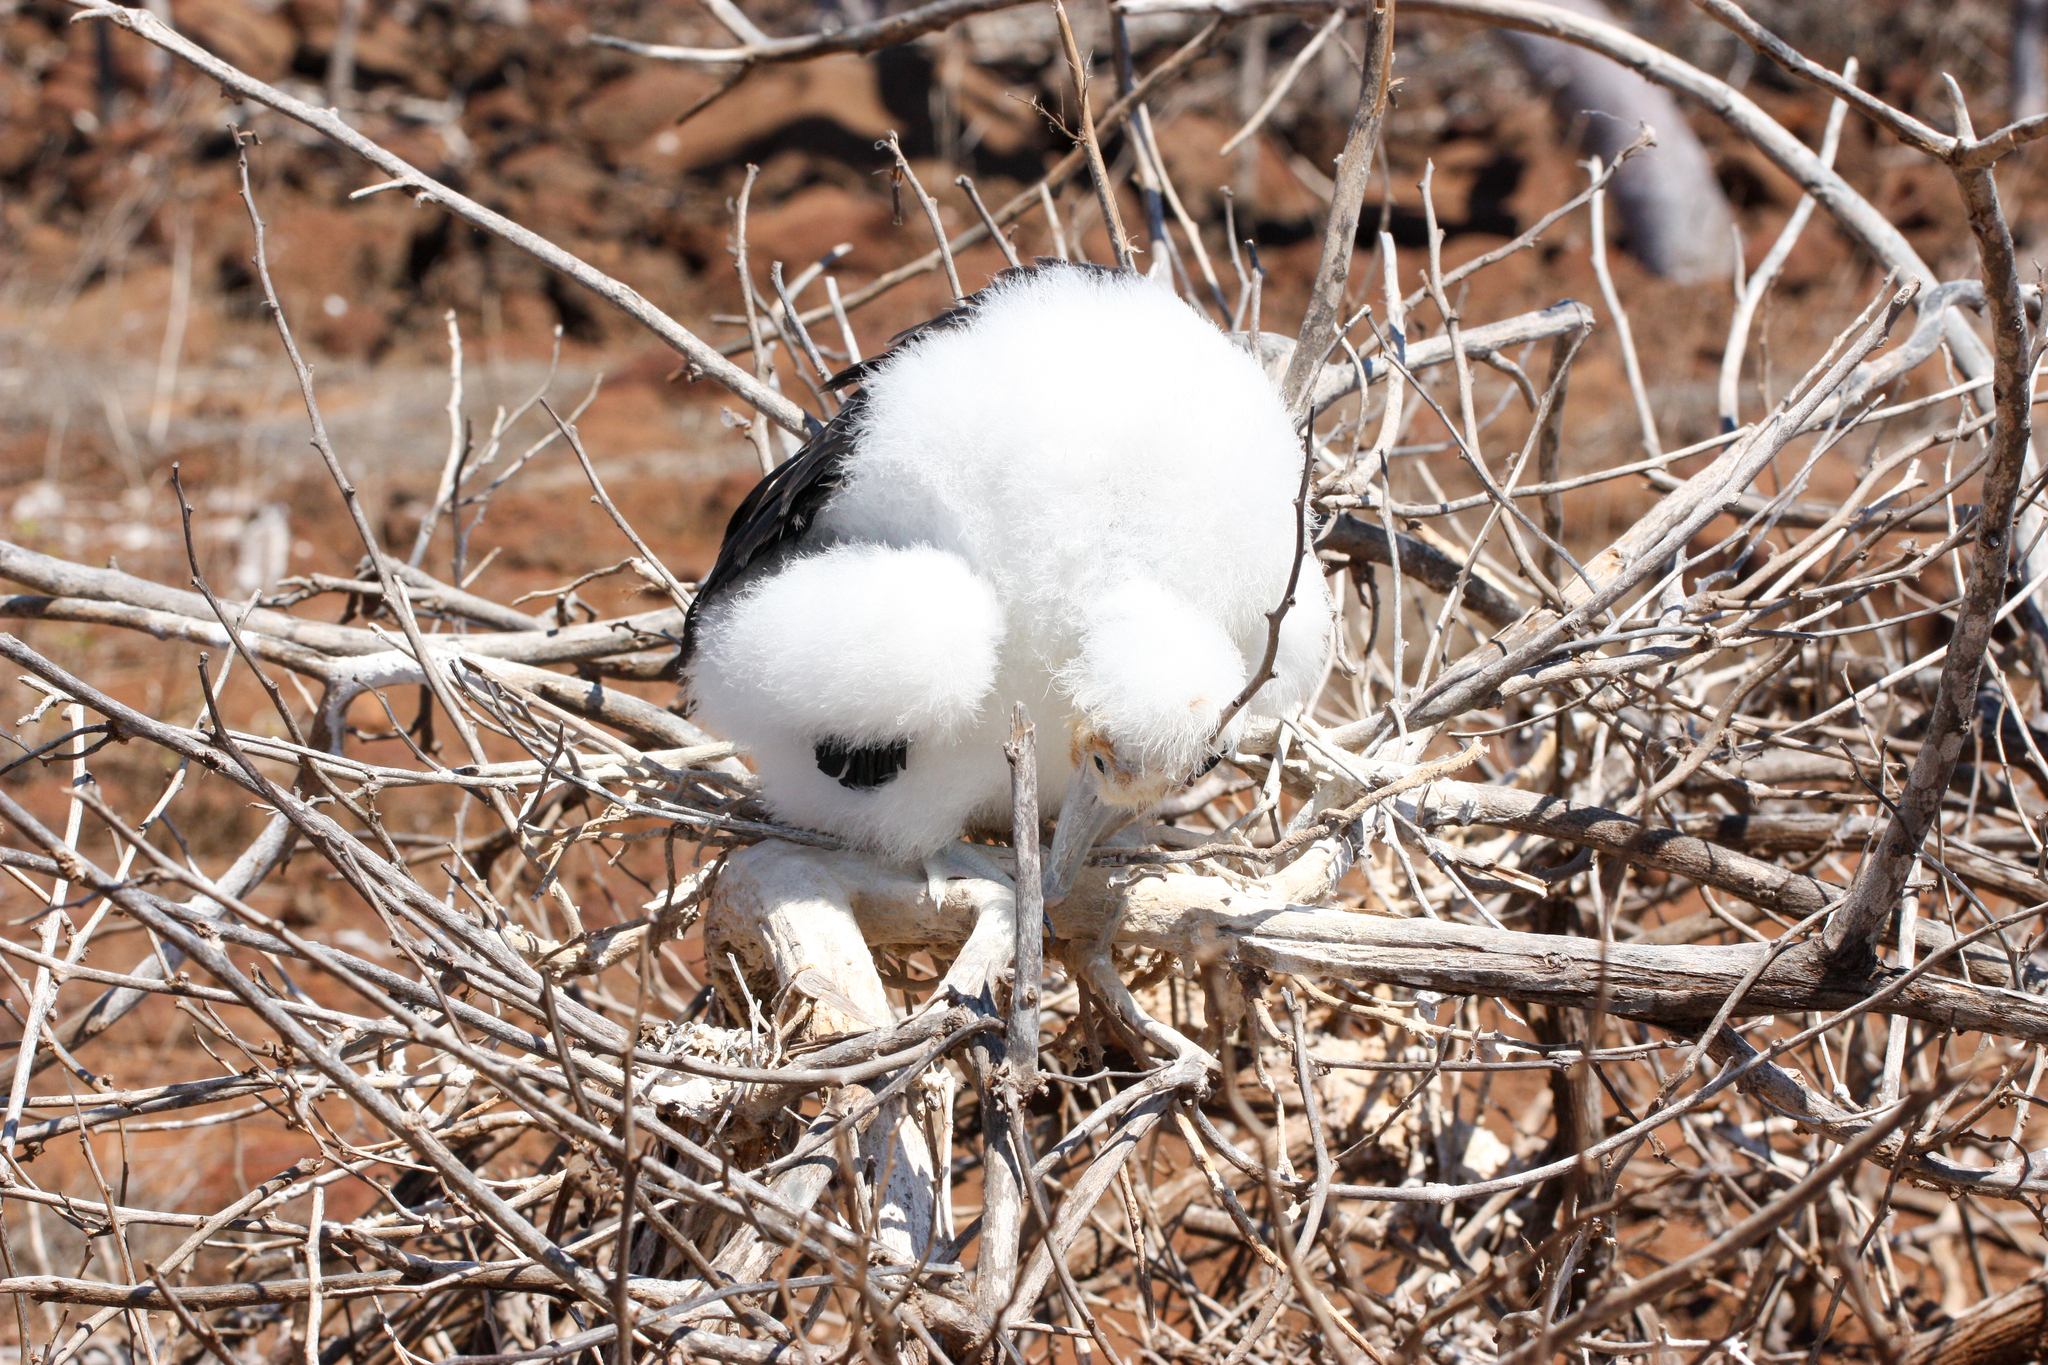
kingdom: Animalia
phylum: Chordata
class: Aves
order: Suliformes
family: Fregatidae
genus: Fregata
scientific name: Fregata minor
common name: Great frigatebird
